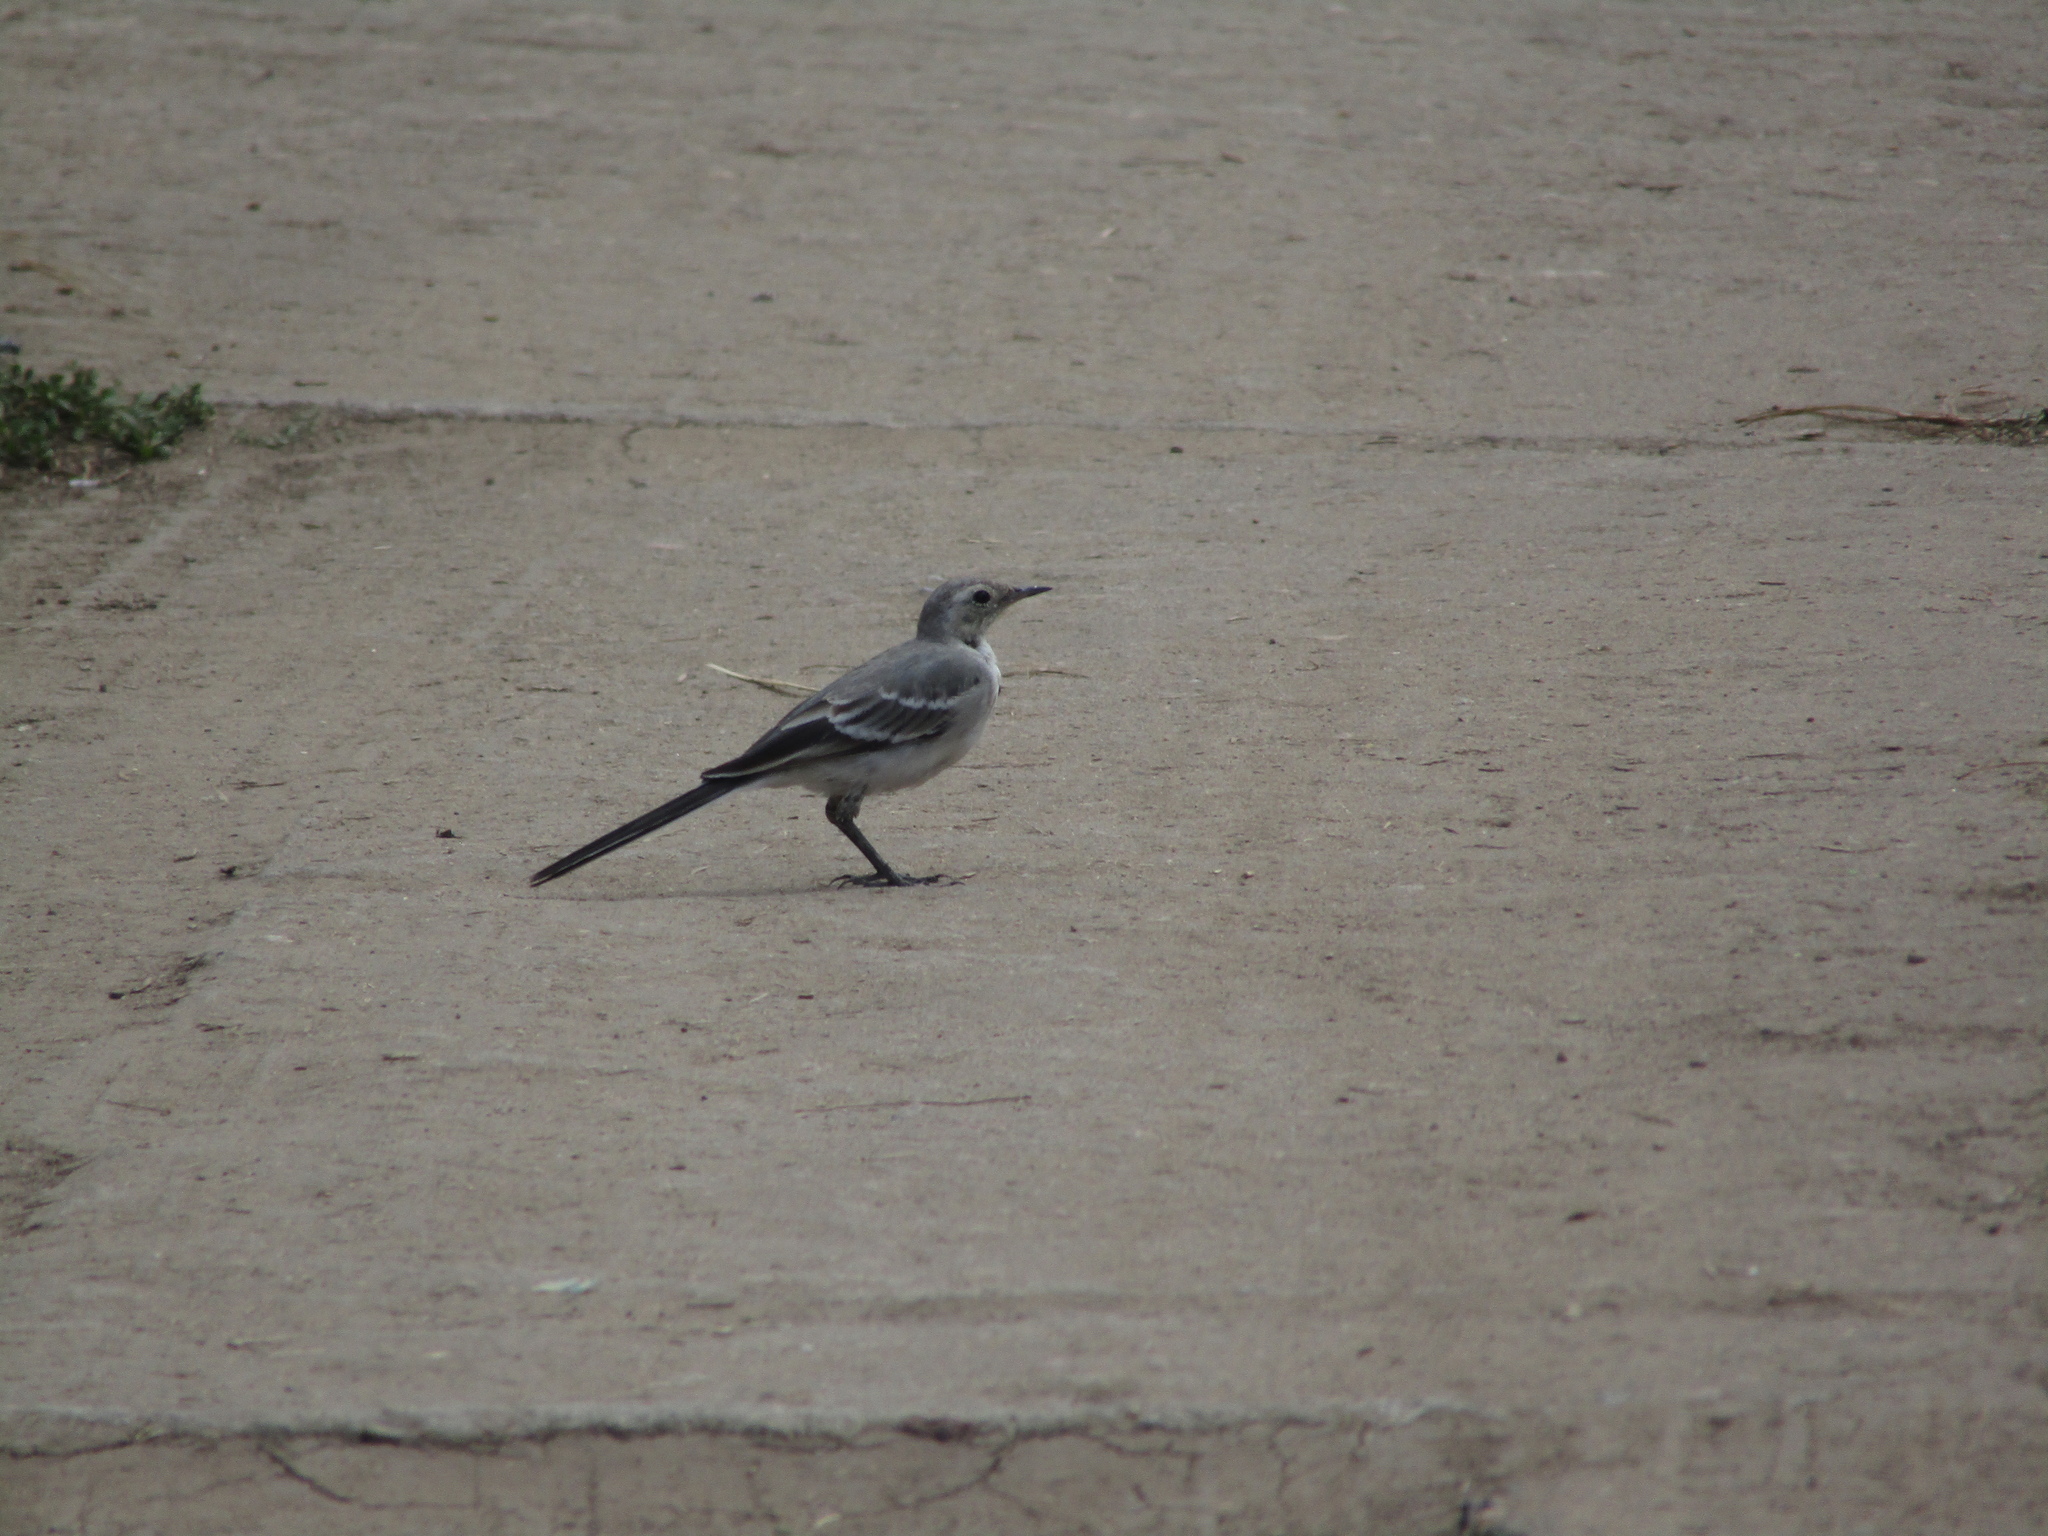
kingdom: Animalia
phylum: Chordata
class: Aves
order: Passeriformes
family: Motacillidae
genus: Motacilla
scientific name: Motacilla alba
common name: White wagtail
